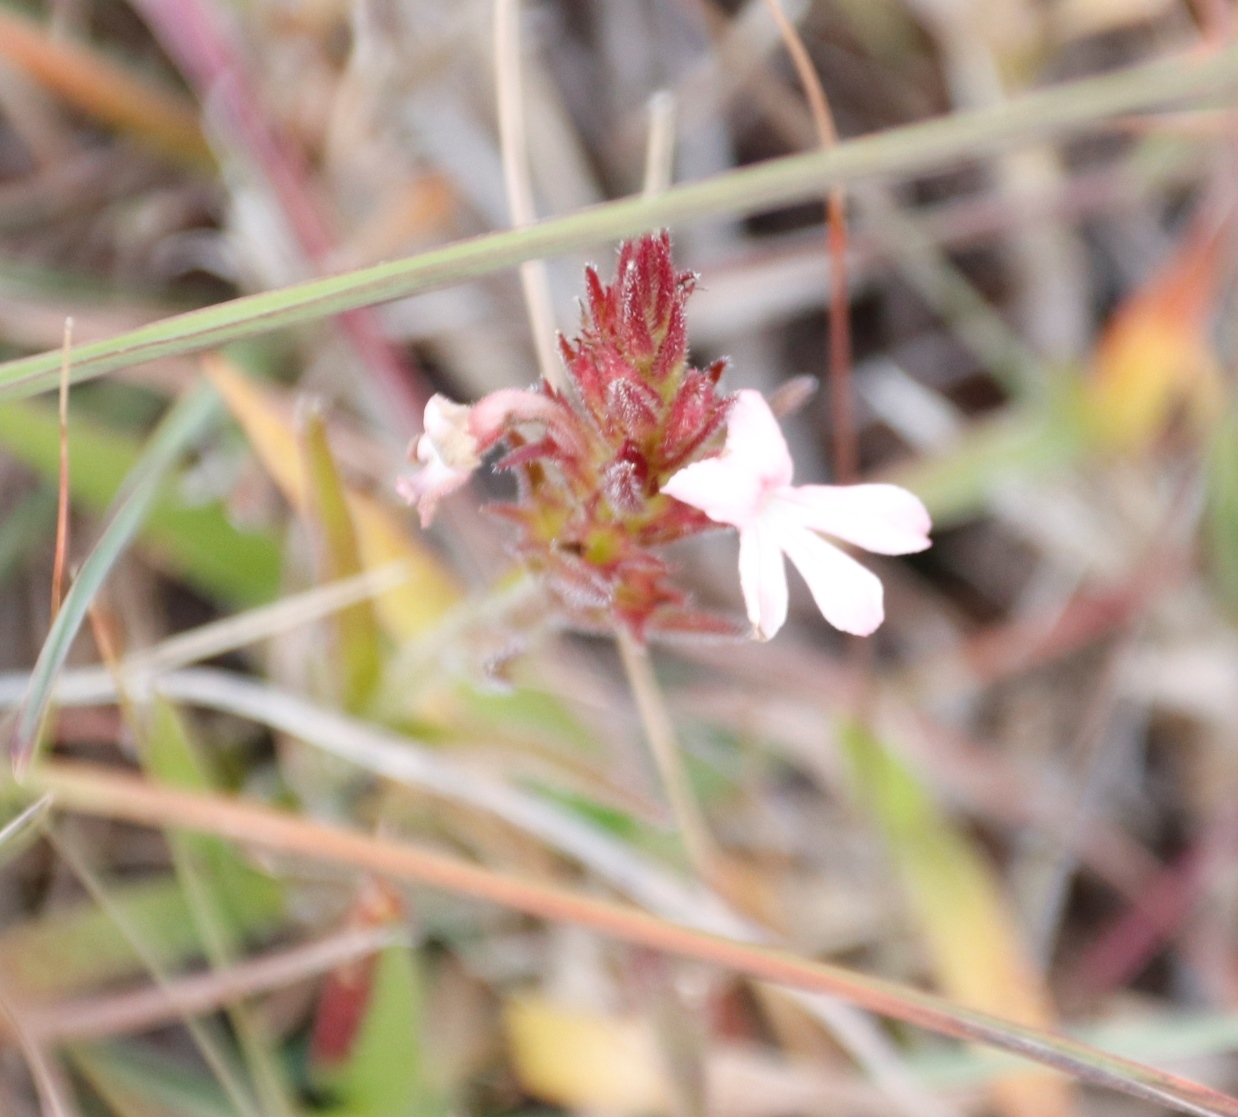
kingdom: Plantae
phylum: Tracheophyta
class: Magnoliopsida
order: Lamiales
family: Orobanchaceae
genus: Striga
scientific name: Striga elegans
